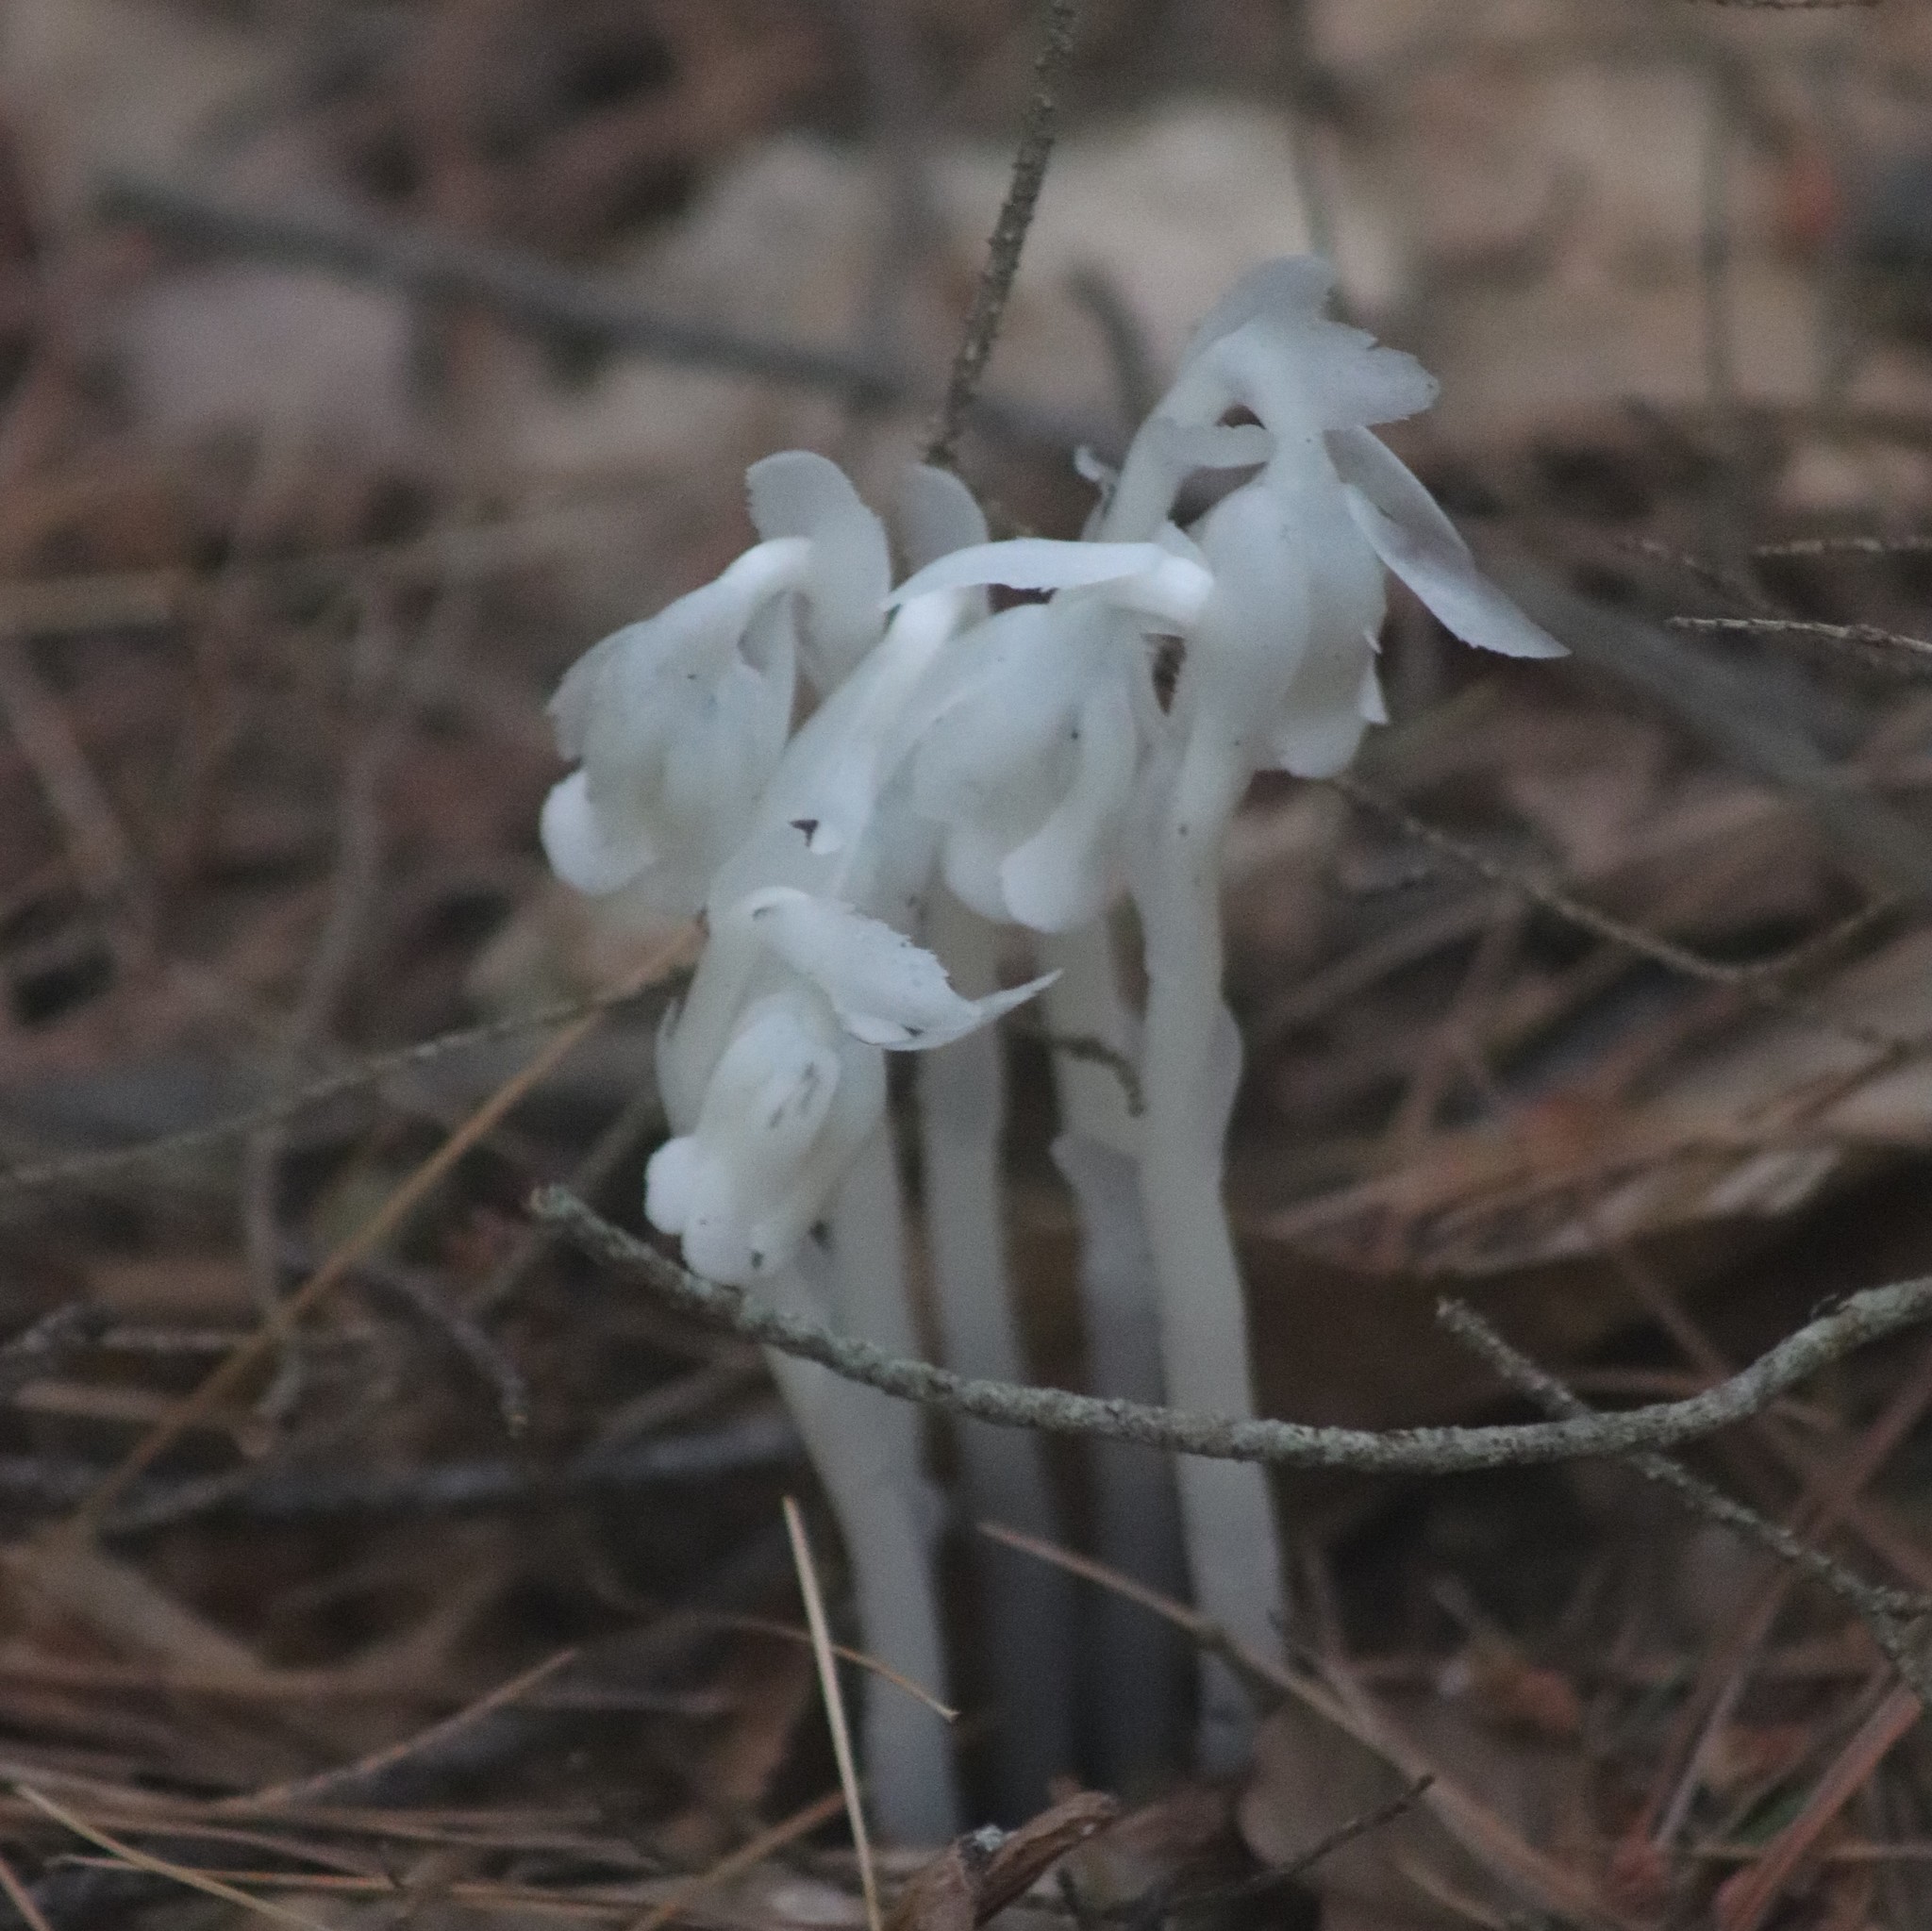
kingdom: Plantae
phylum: Tracheophyta
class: Magnoliopsida
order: Ericales
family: Ericaceae
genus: Monotropa
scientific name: Monotropa uniflora
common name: Convulsion root
